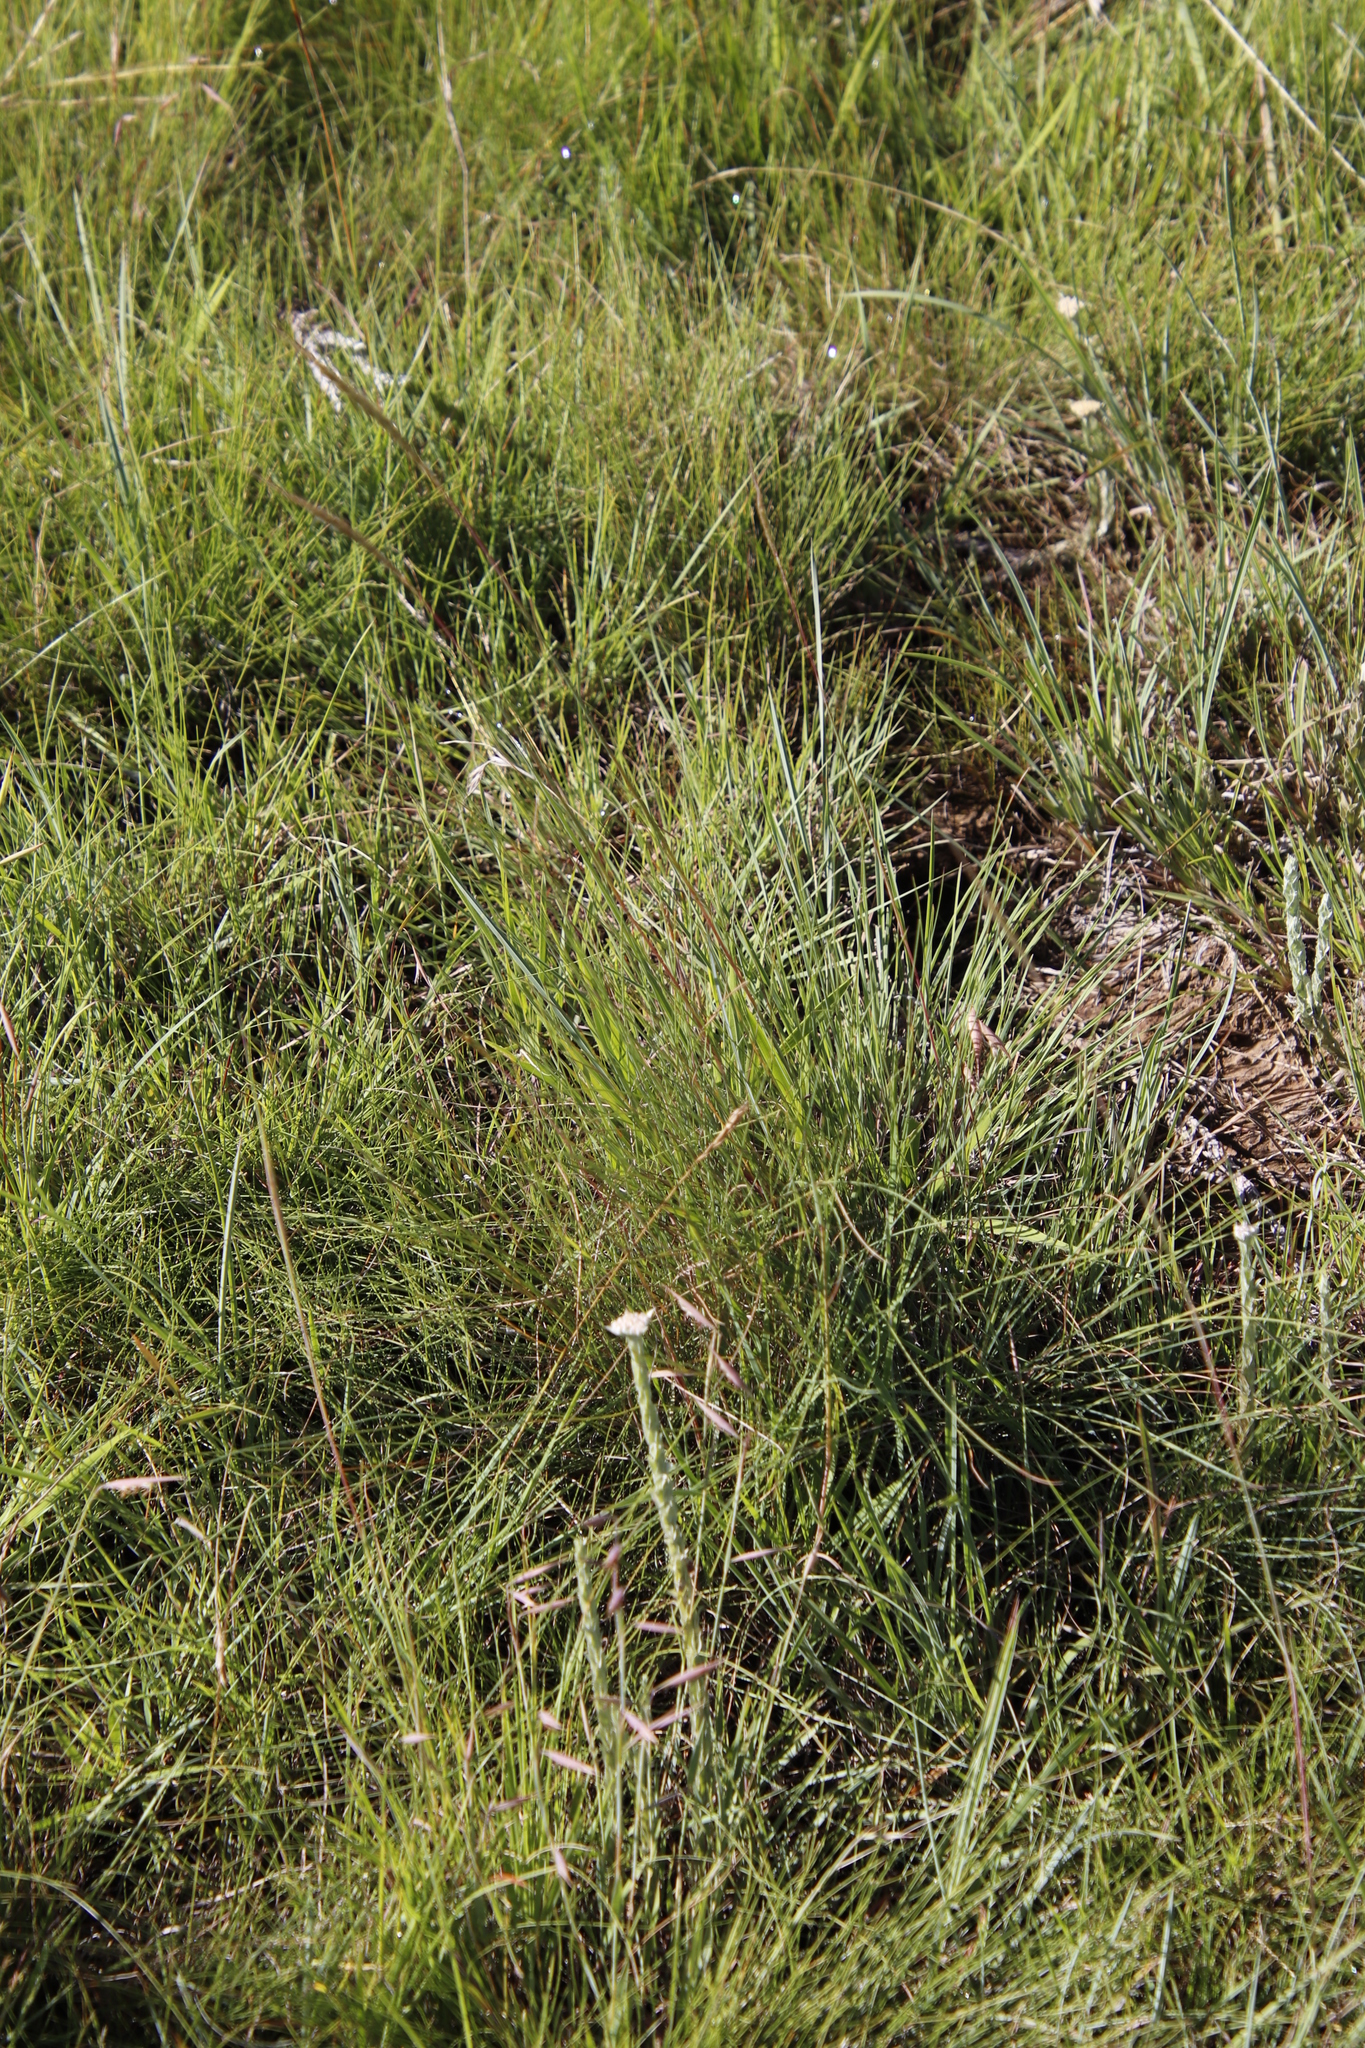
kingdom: Plantae
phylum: Tracheophyta
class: Liliopsida
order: Poales
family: Poaceae
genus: Trachypogon
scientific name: Trachypogon spicatus
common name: Crinkle-awn
